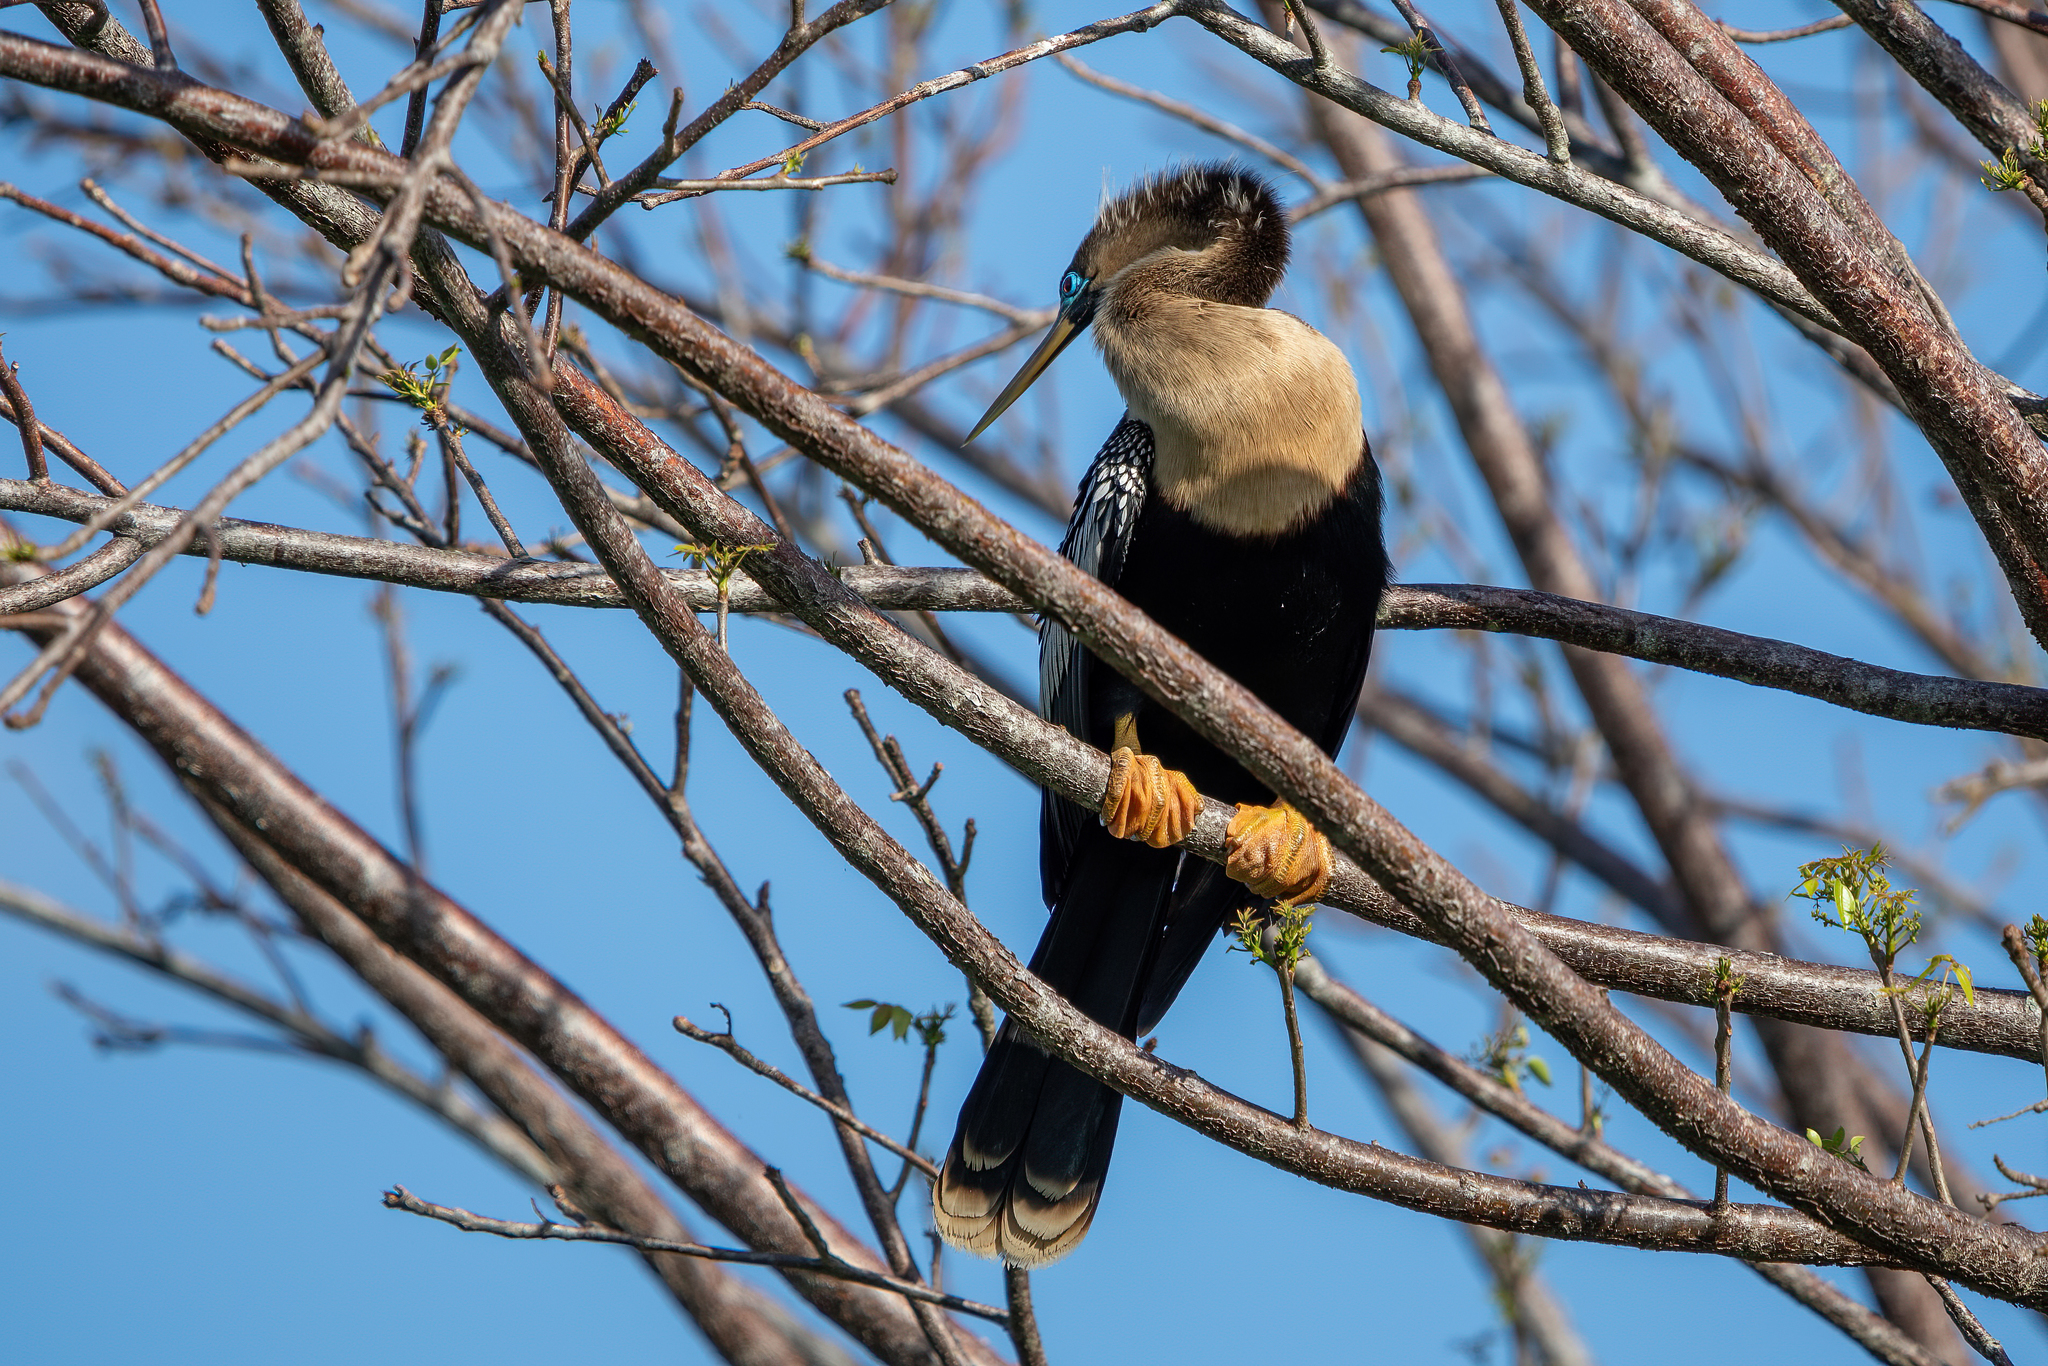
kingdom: Animalia
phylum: Chordata
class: Aves
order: Suliformes
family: Anhingidae
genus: Anhinga
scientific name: Anhinga anhinga
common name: Anhinga
